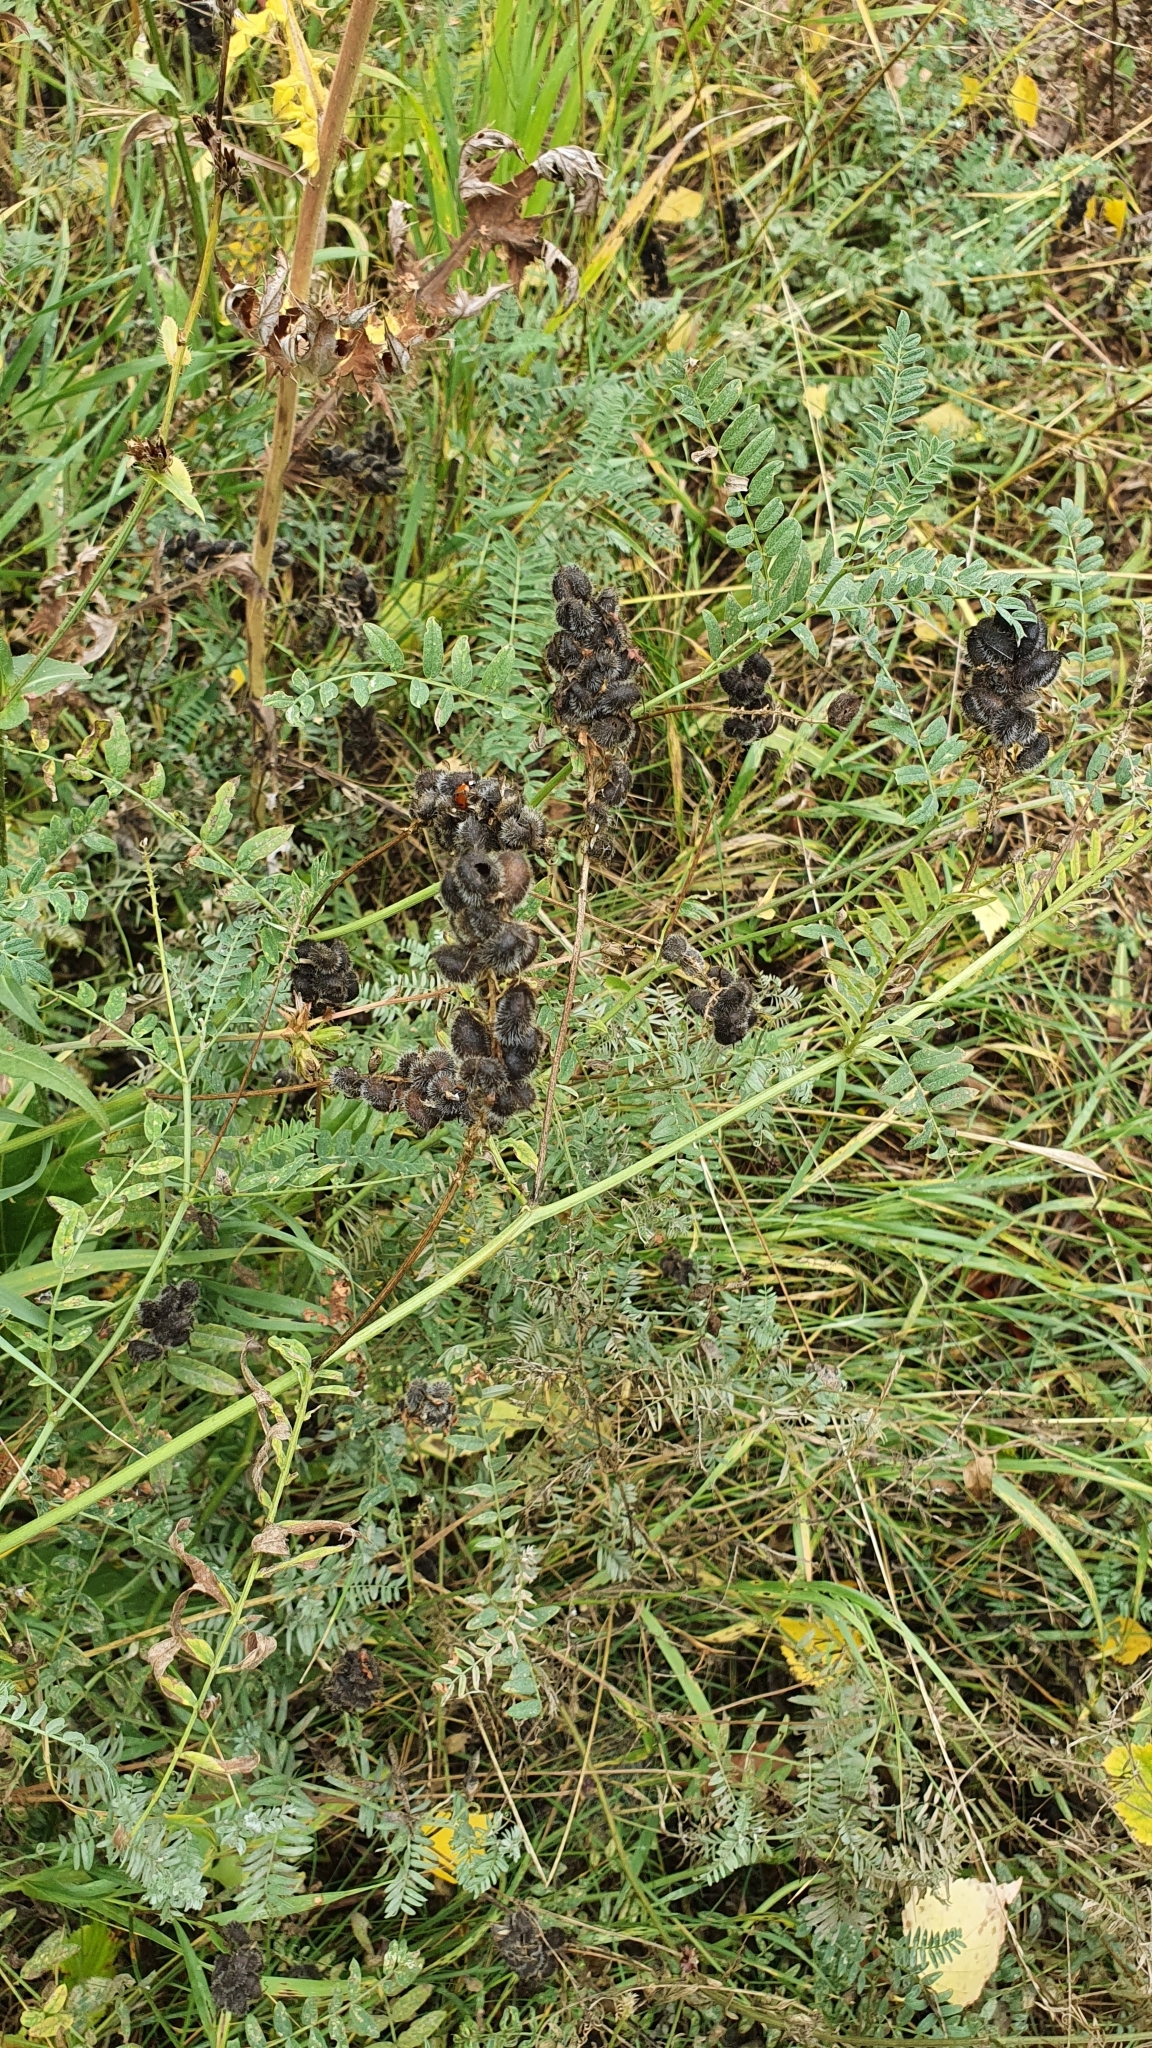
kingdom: Plantae
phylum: Tracheophyta
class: Magnoliopsida
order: Fabales
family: Fabaceae
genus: Astragalus
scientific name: Astragalus cicer
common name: Chick-pea milk-vetch
